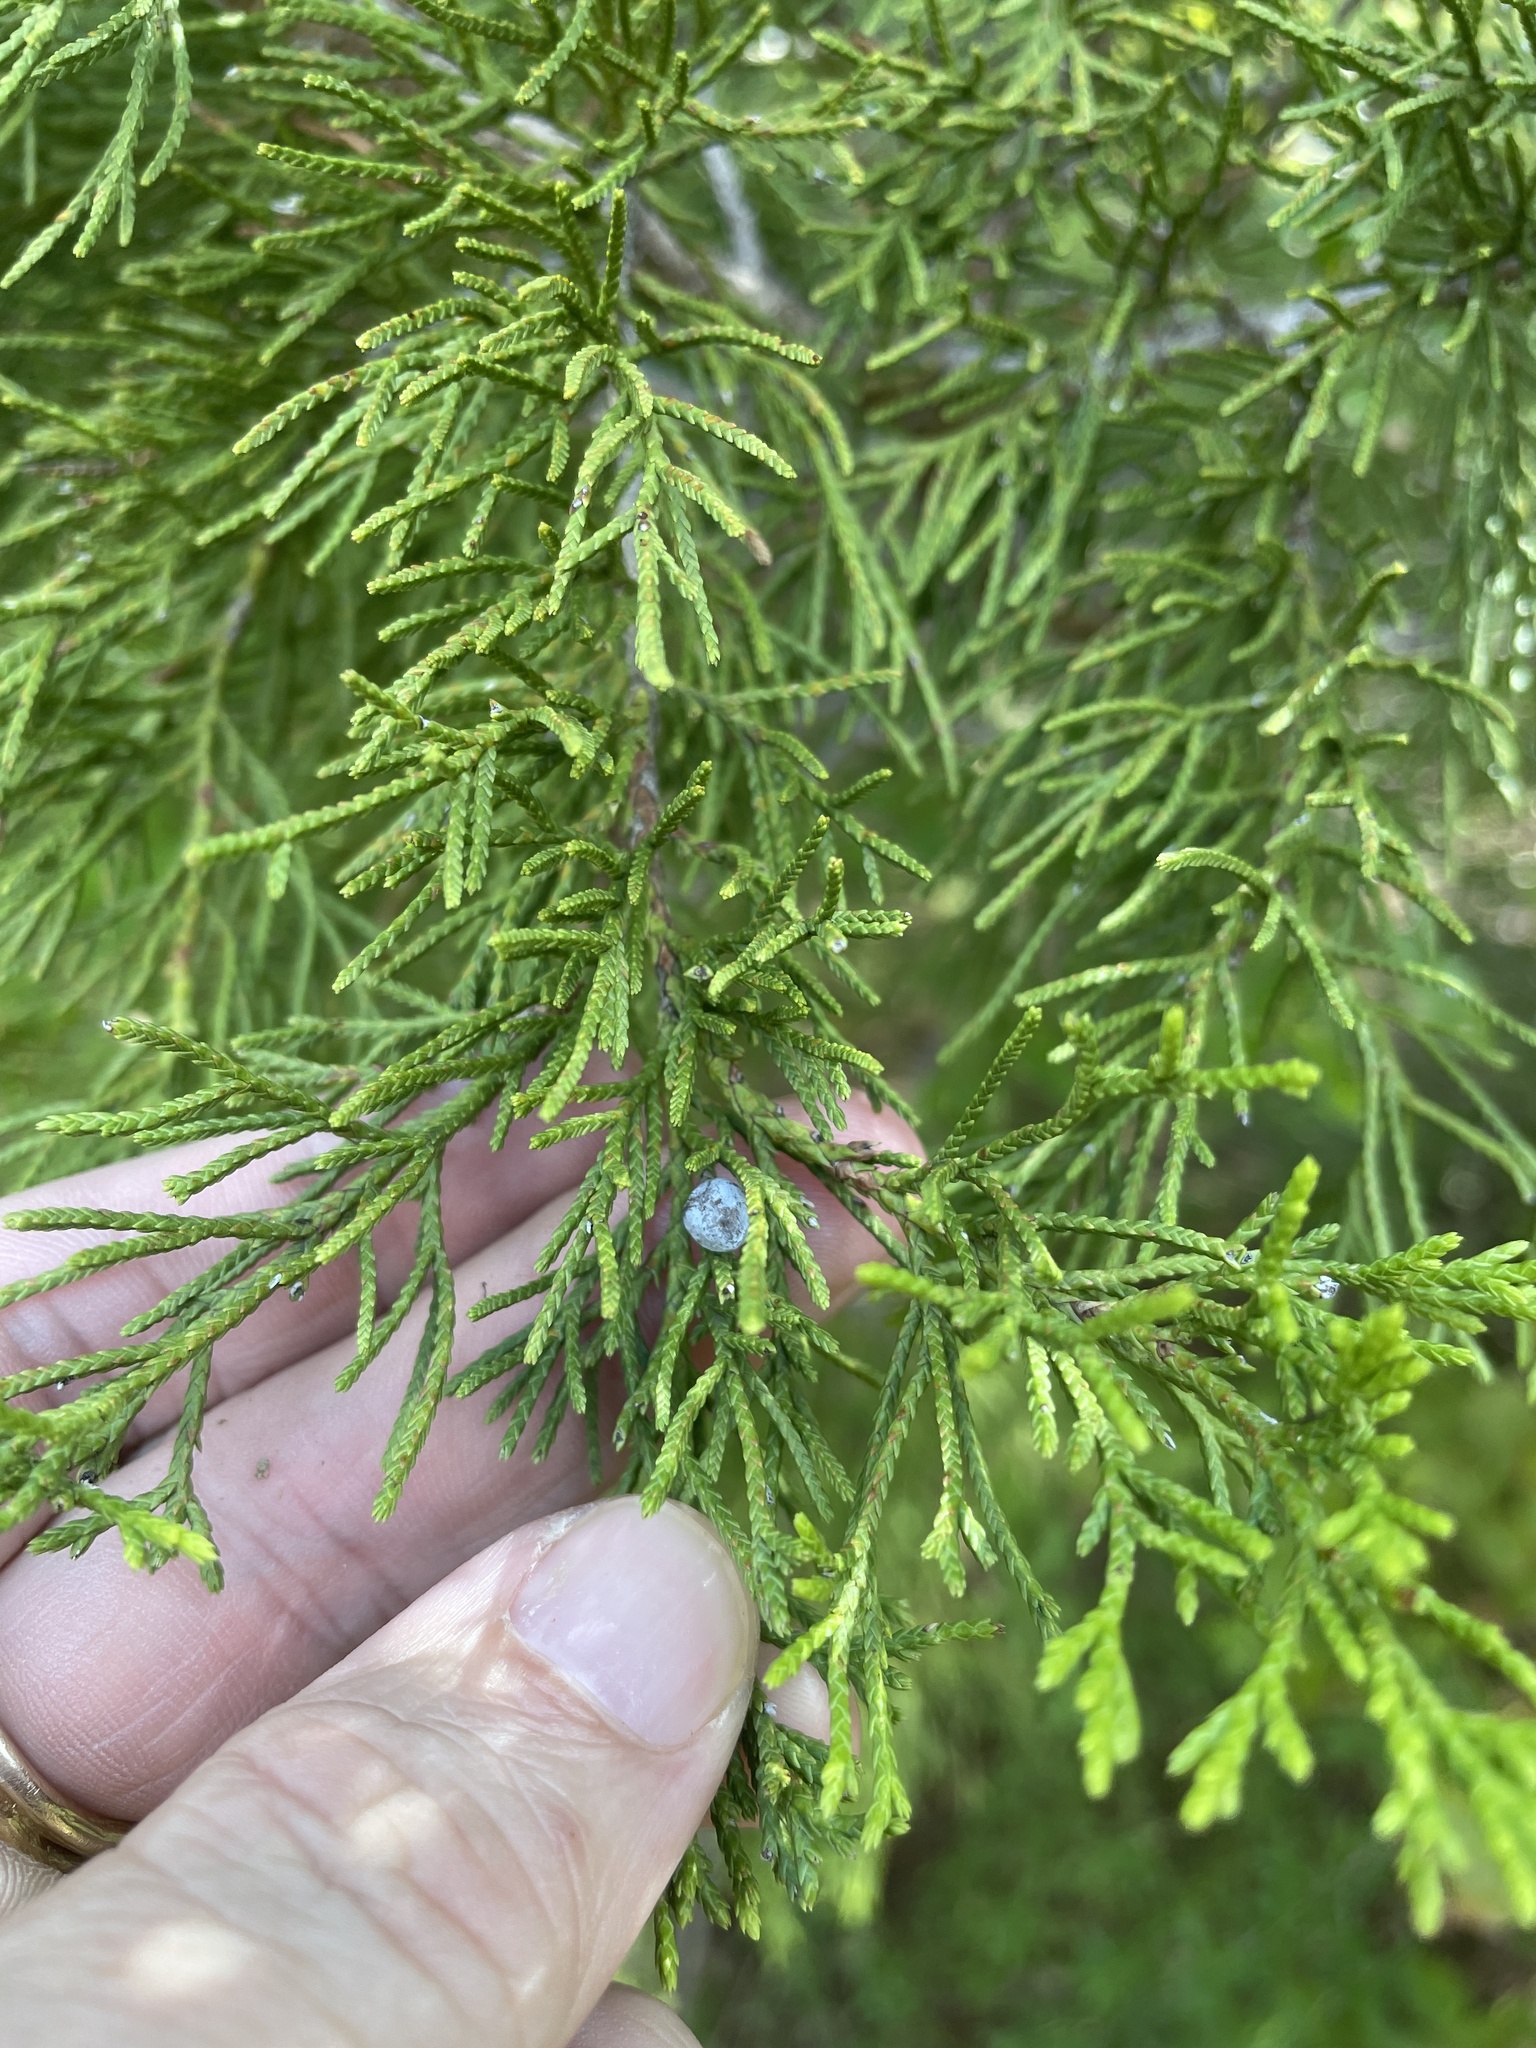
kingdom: Plantae
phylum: Tracheophyta
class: Pinopsida
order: Pinales
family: Cupressaceae
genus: Juniperus
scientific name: Juniperus virginiana
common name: Red juniper
